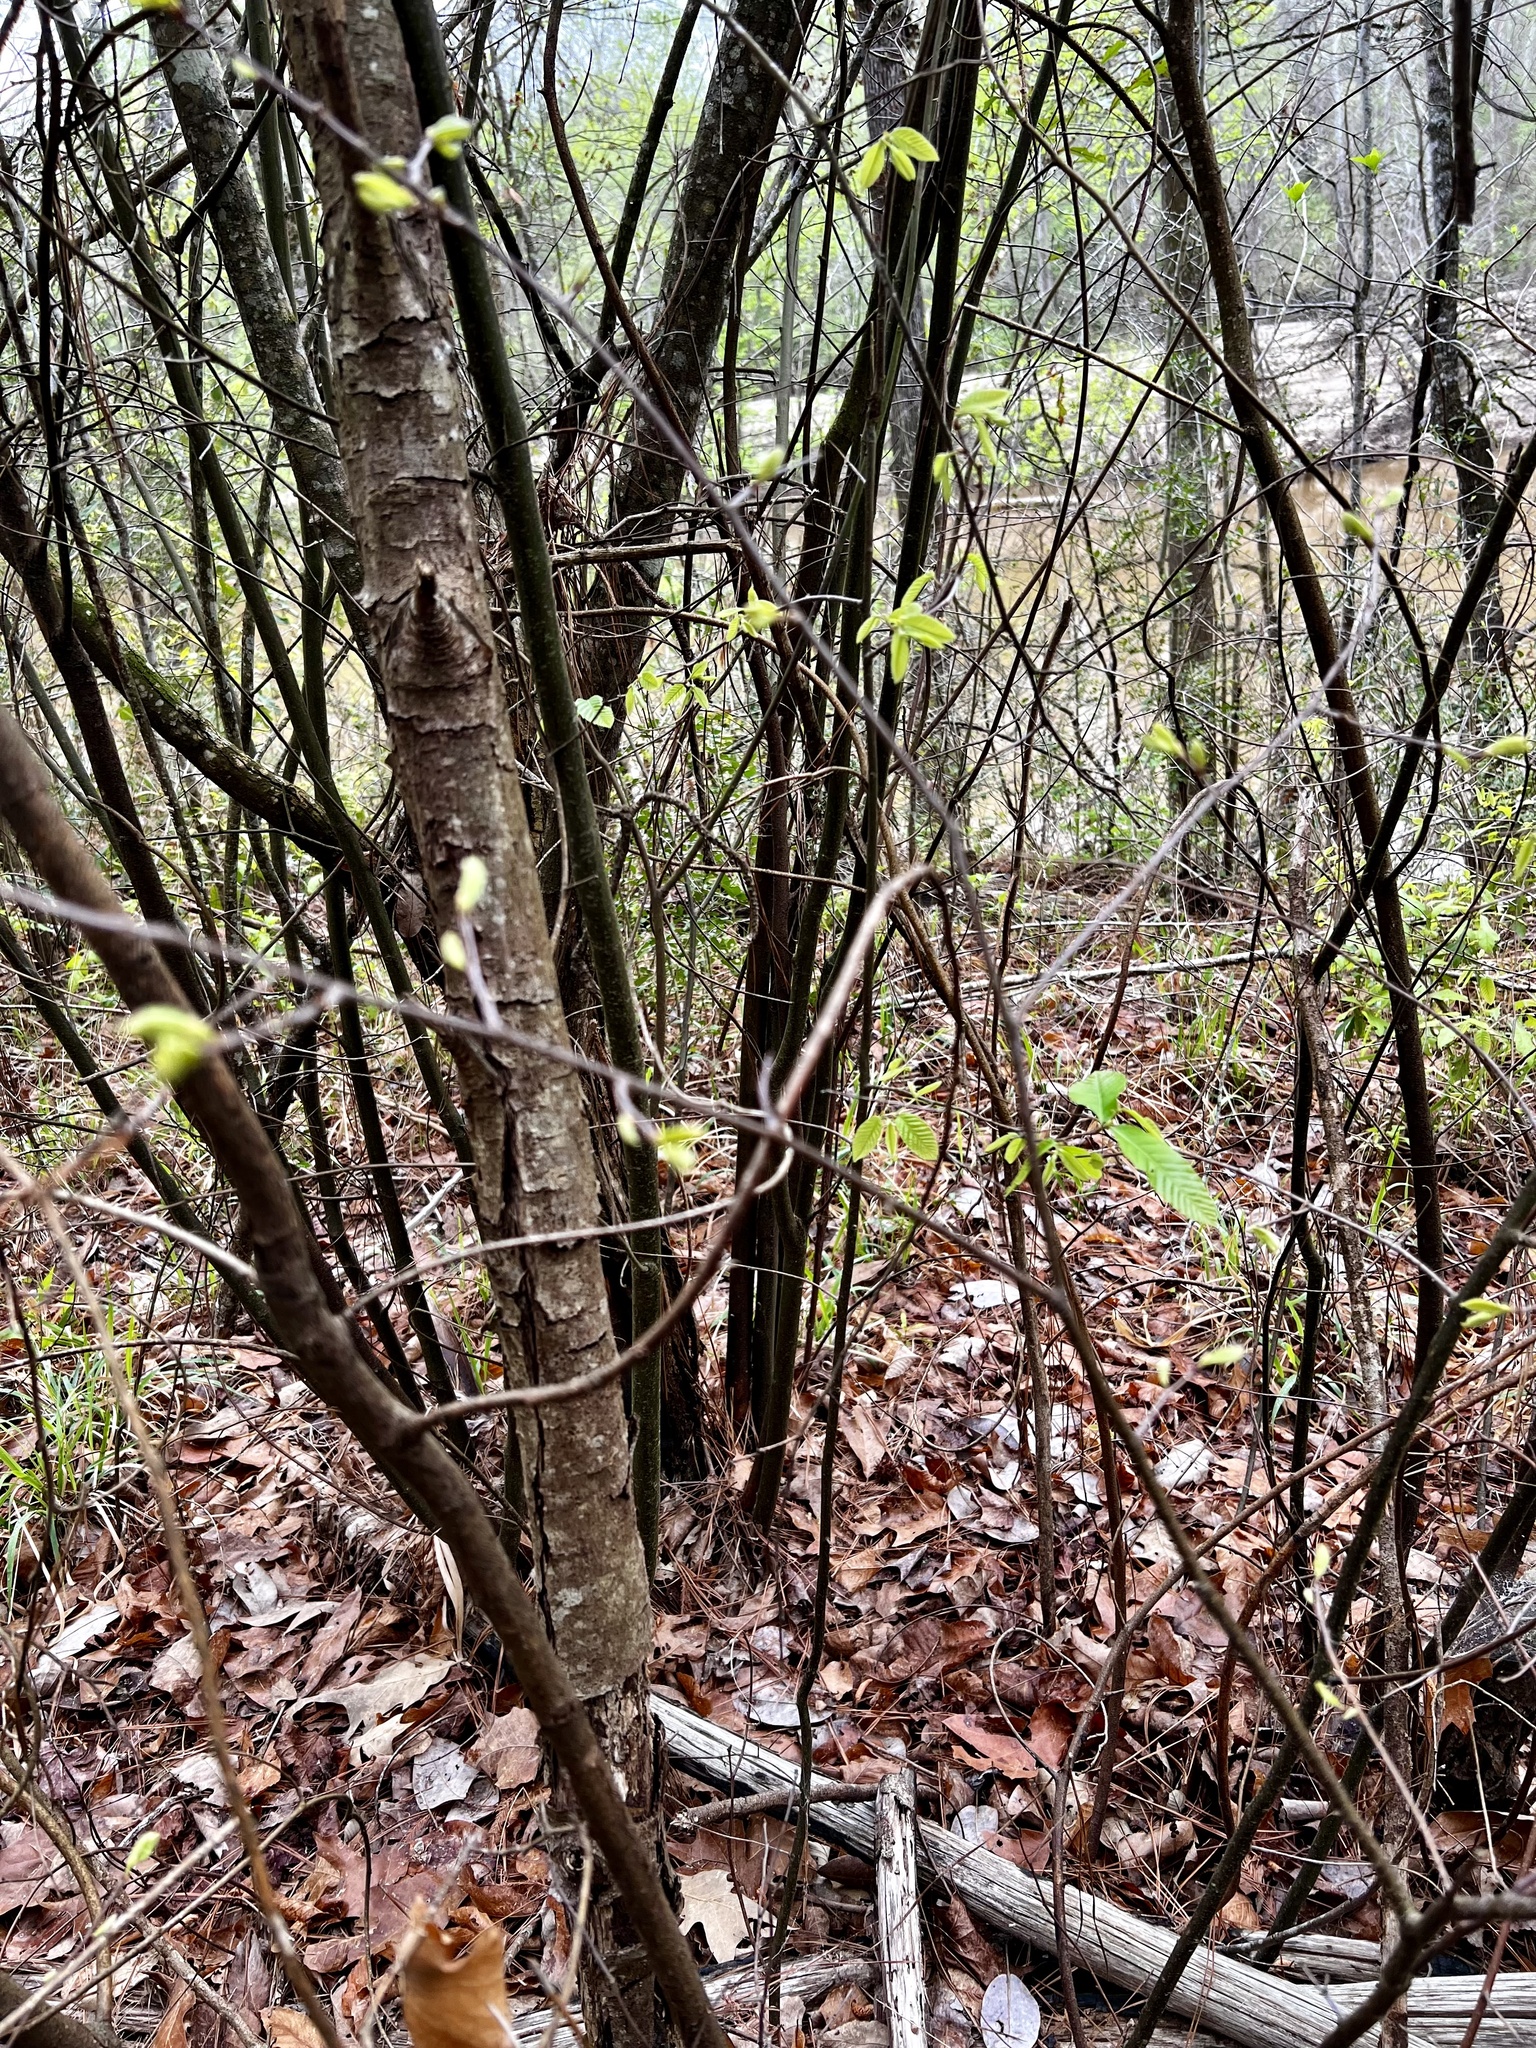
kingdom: Plantae
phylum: Tracheophyta
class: Magnoliopsida
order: Fagales
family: Fagaceae
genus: Castanea
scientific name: Castanea pumila
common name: Chinkapin
